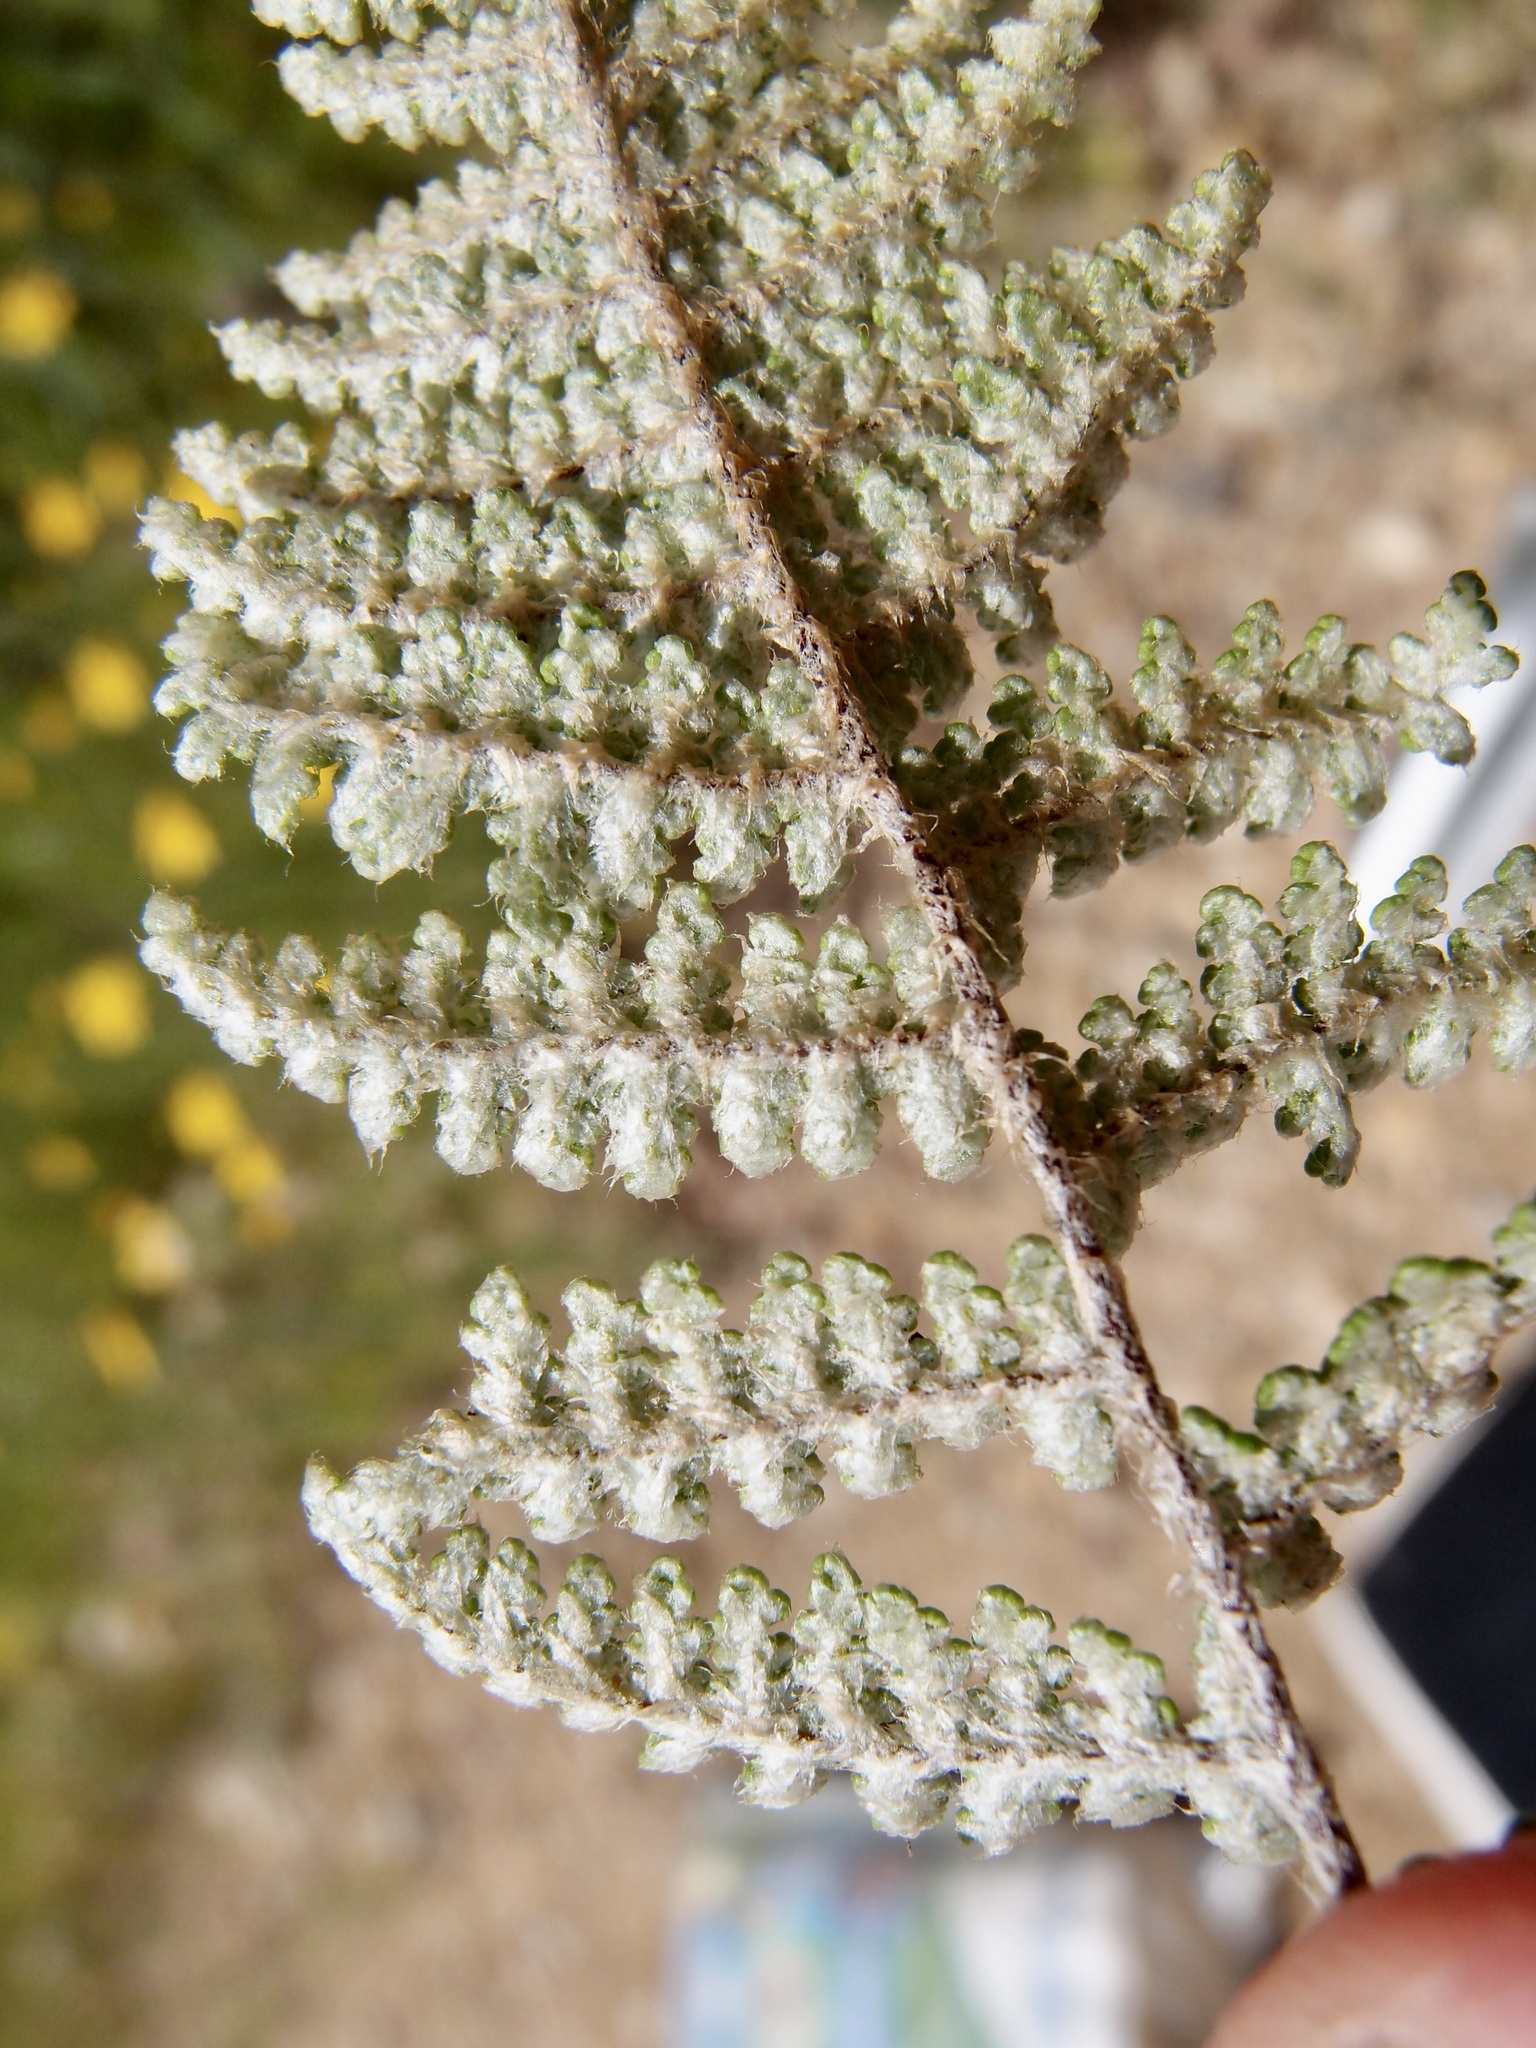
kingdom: Plantae
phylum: Tracheophyta
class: Polypodiopsida
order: Polypodiales
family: Pteridaceae
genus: Myriopteris
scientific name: Myriopteris fendleri
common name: Fendler's lip fern
